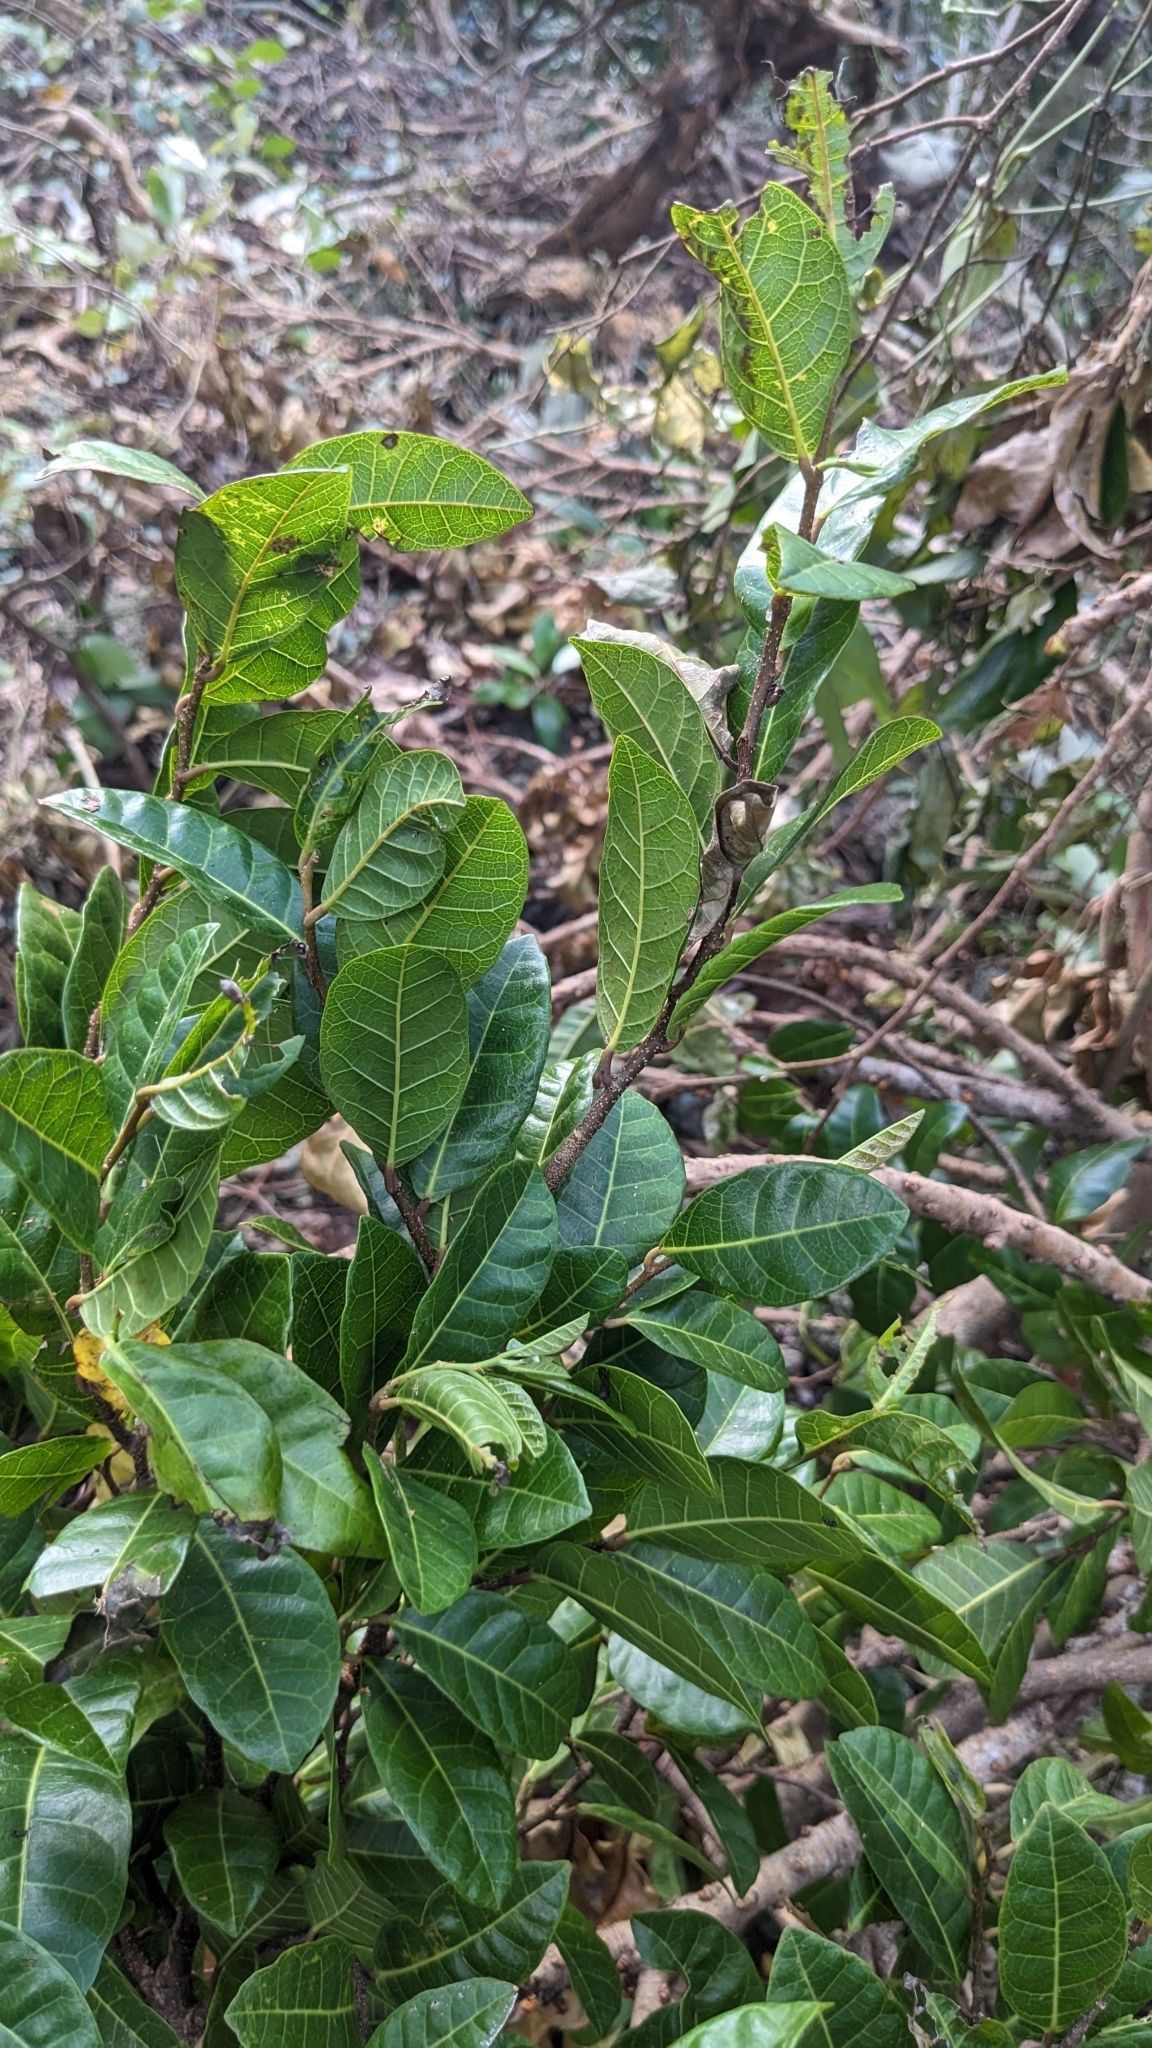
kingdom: Plantae
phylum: Tracheophyta
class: Magnoliopsida
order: Rosales
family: Moraceae
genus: Malaisia
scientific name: Malaisia scandens
